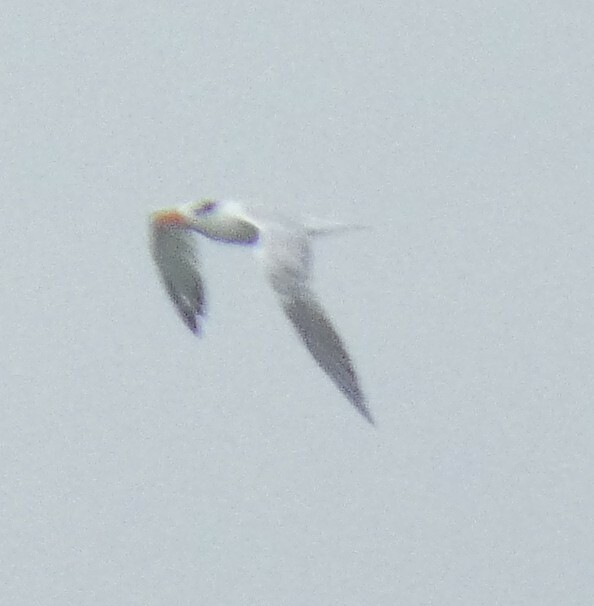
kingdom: Animalia
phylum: Chordata
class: Aves
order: Charadriiformes
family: Laridae
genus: Thalasseus
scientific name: Thalasseus maximus
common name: Royal tern
